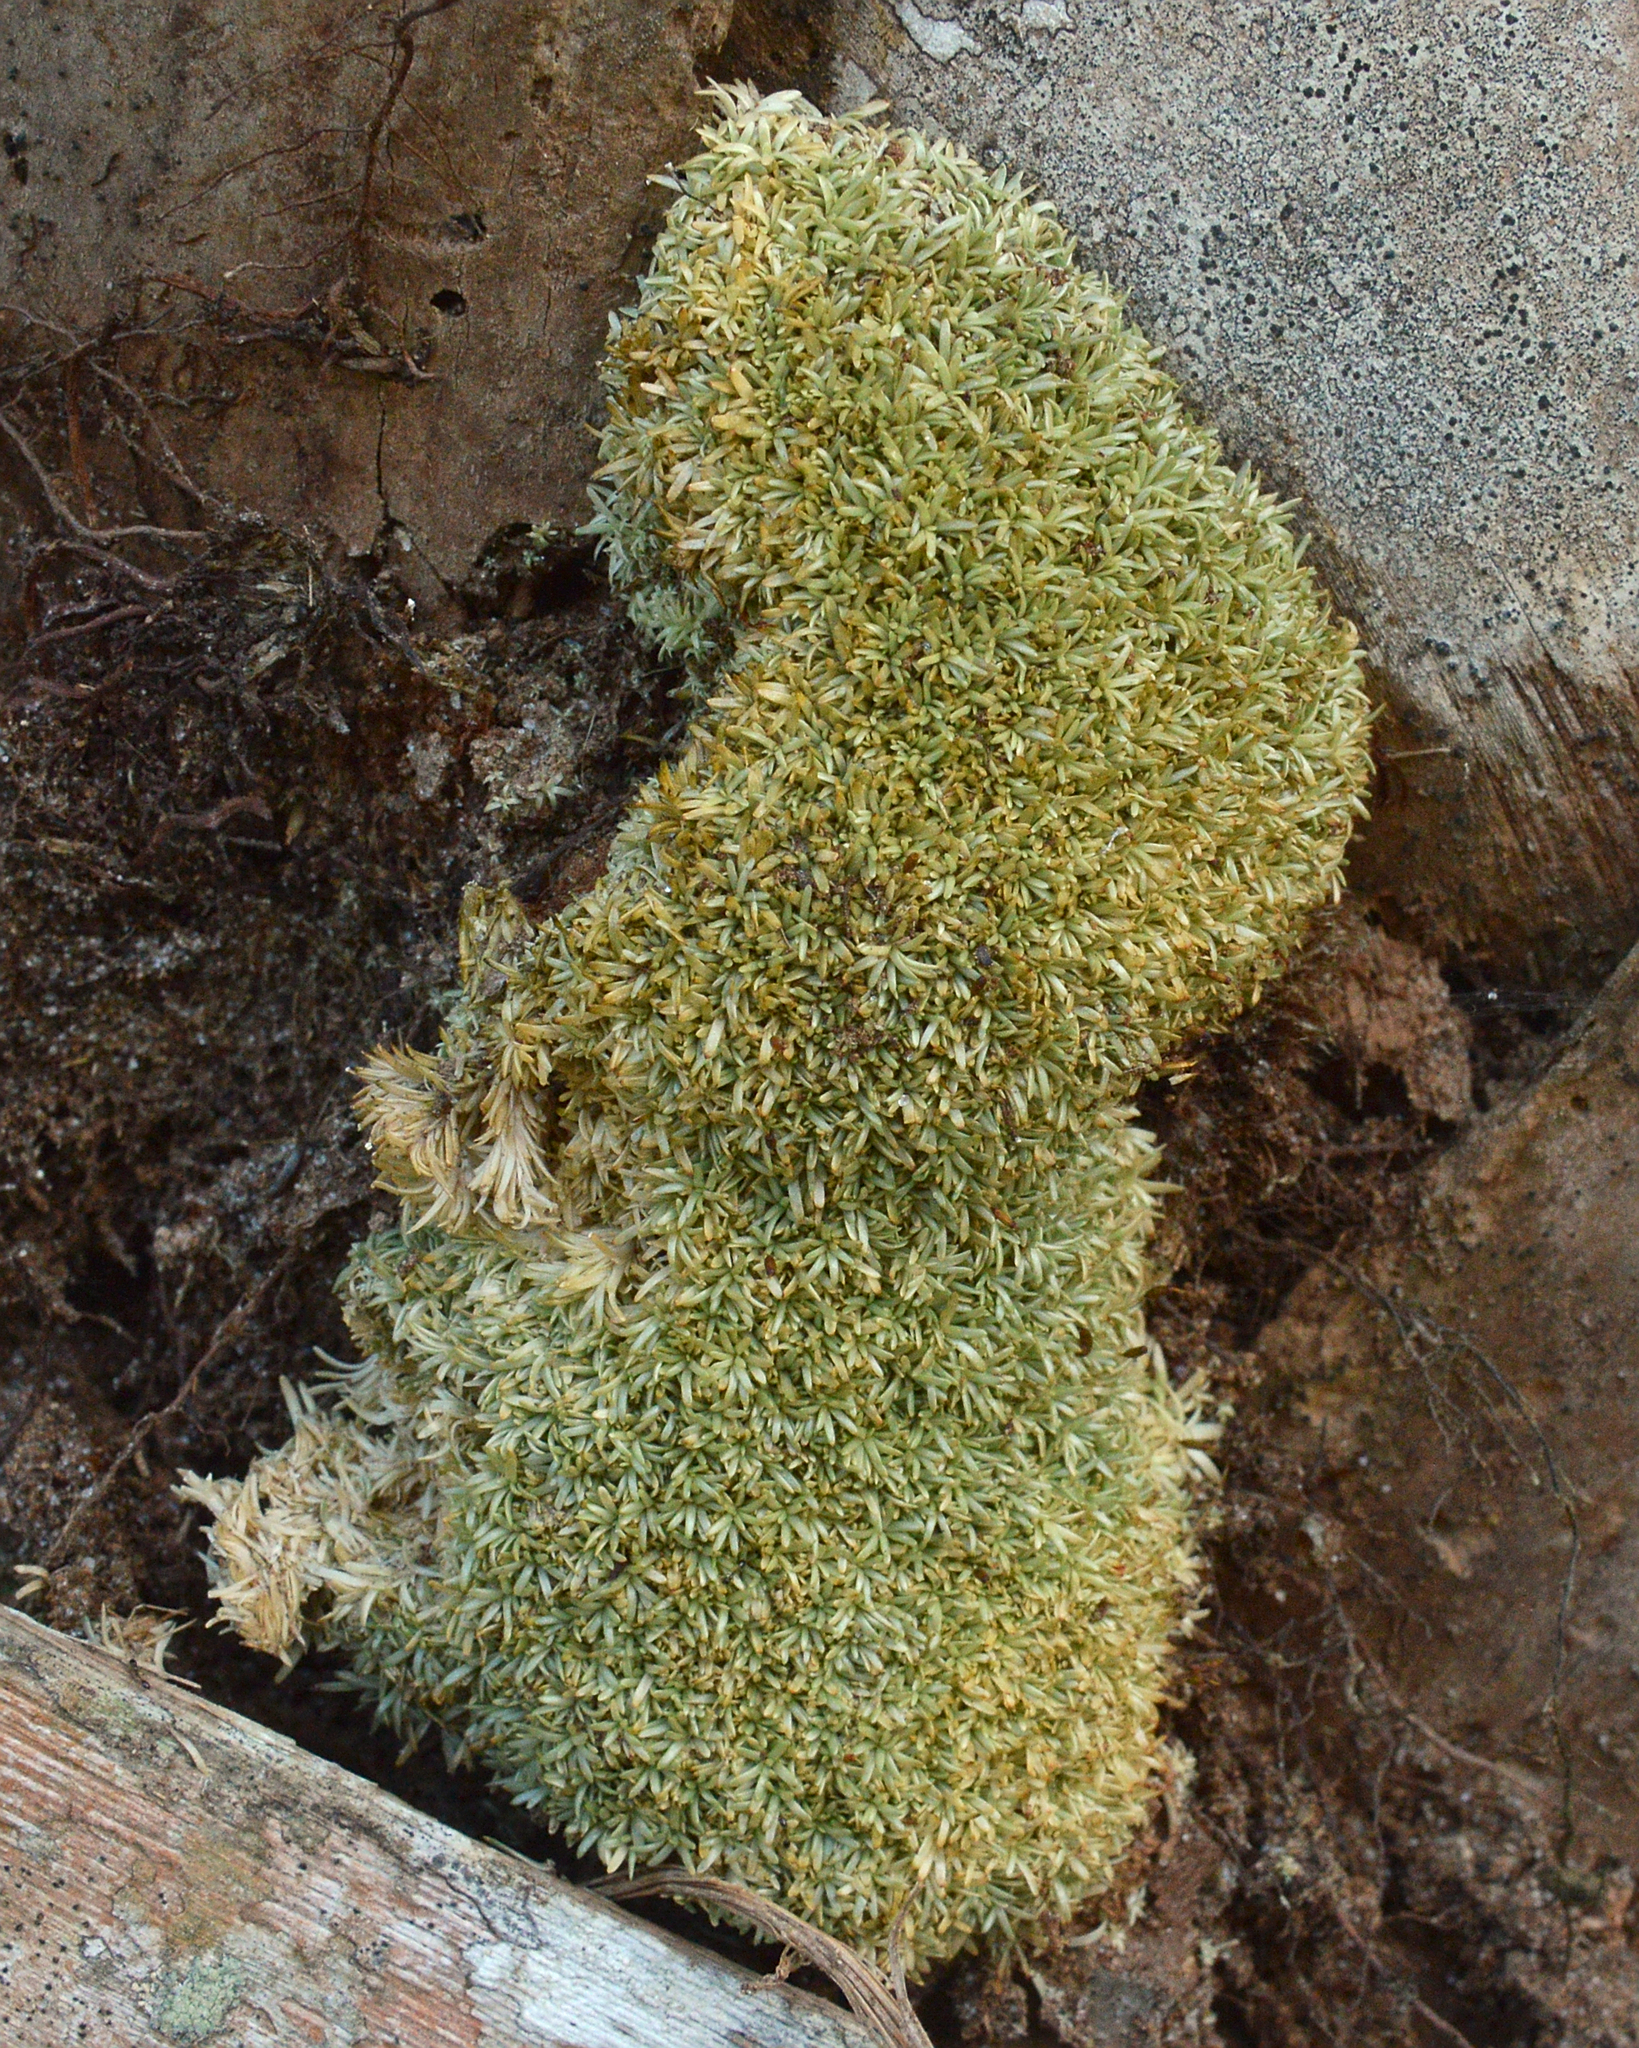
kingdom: Plantae
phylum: Bryophyta
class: Bryopsida
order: Dicranales
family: Octoblepharaceae
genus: Octoblepharum
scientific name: Octoblepharum albidum
